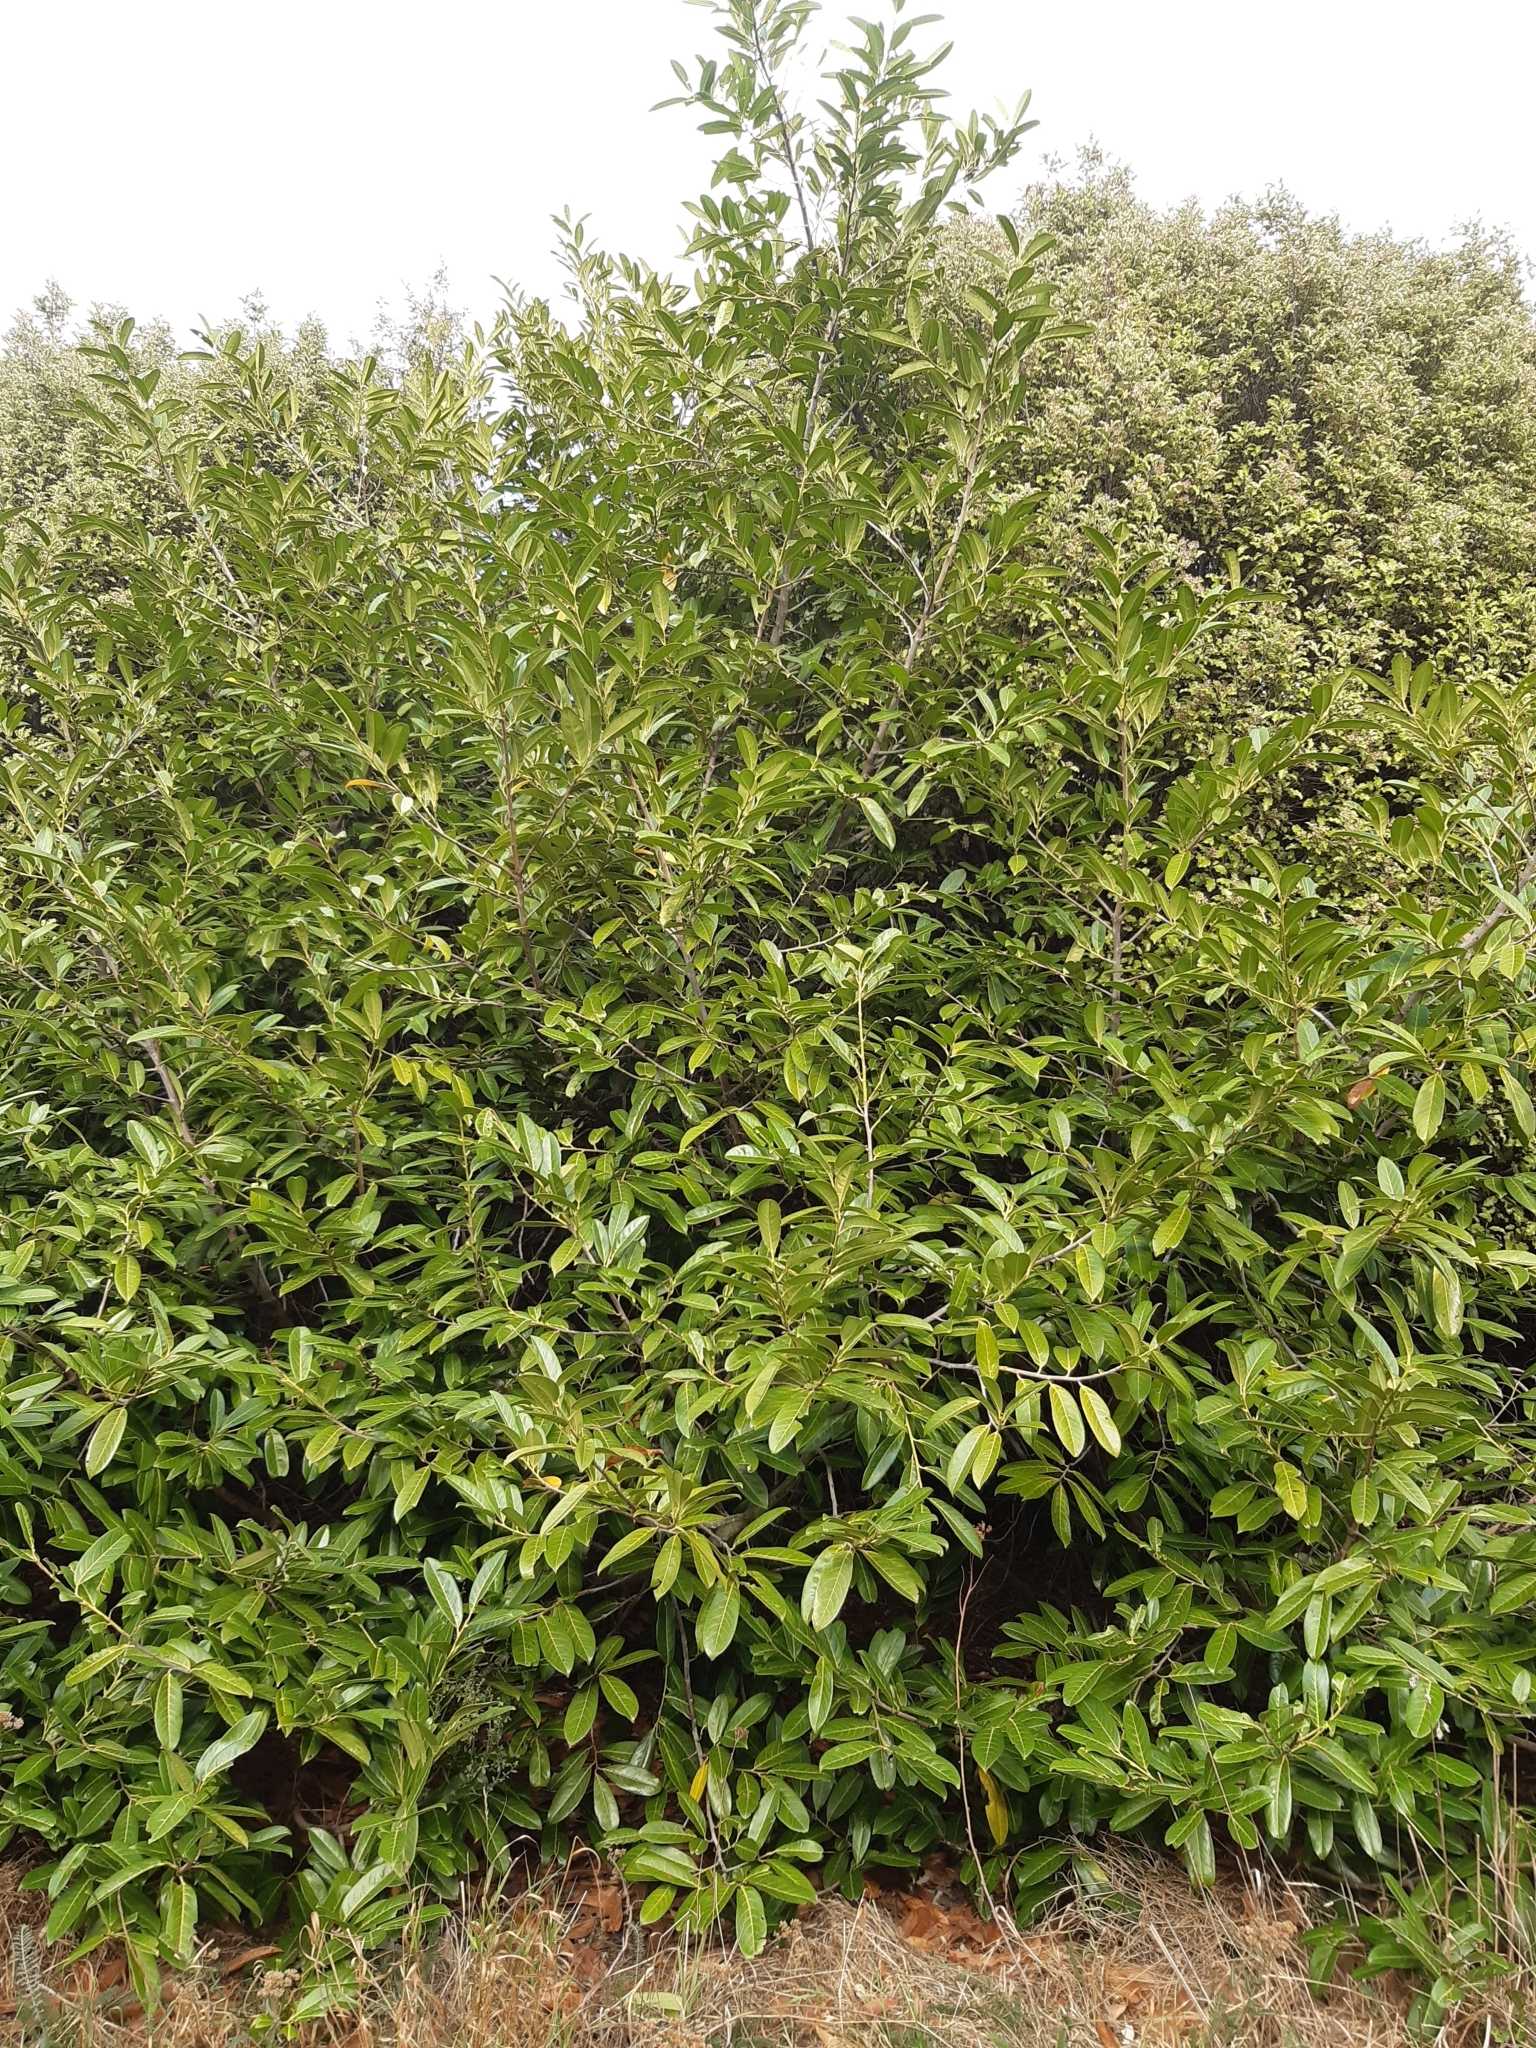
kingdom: Plantae
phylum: Tracheophyta
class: Magnoliopsida
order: Rosales
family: Rosaceae
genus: Prunus
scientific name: Prunus laurocerasus
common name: Cherry laurel
